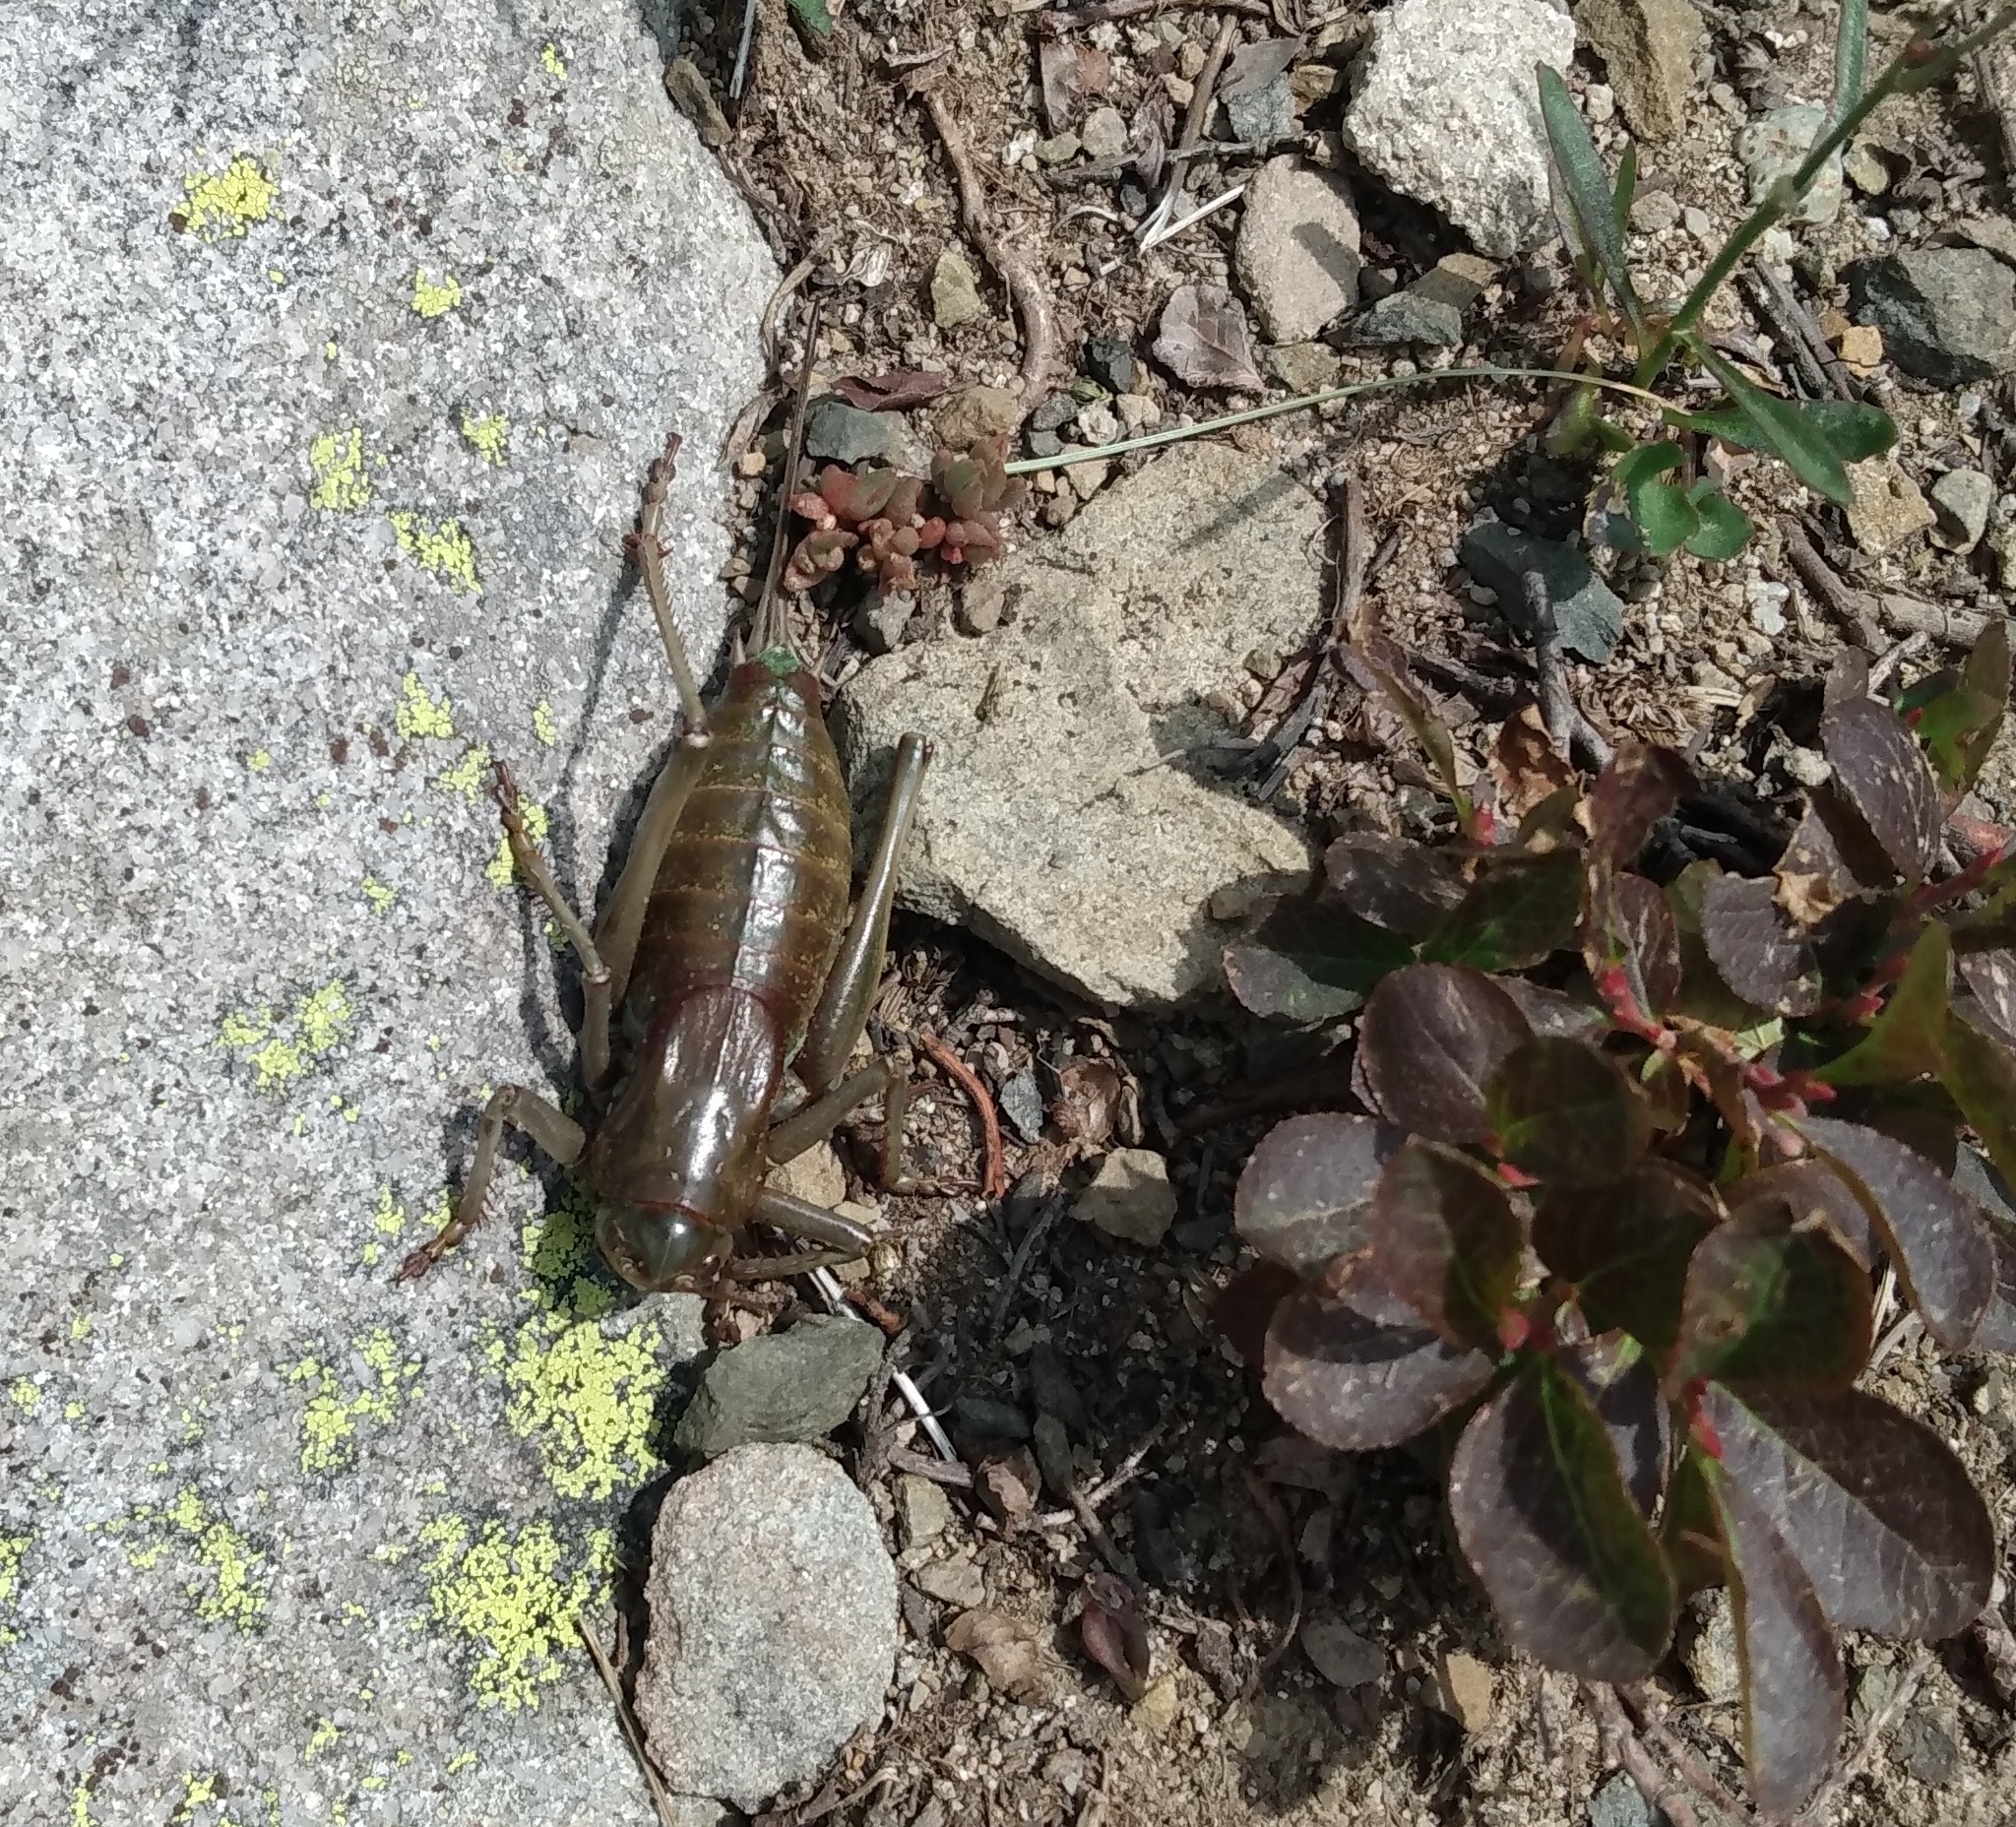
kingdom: Animalia
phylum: Arthropoda
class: Insecta
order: Orthoptera
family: Tettigoniidae
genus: Anabrus
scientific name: Anabrus simplex
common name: Mormon cricket
